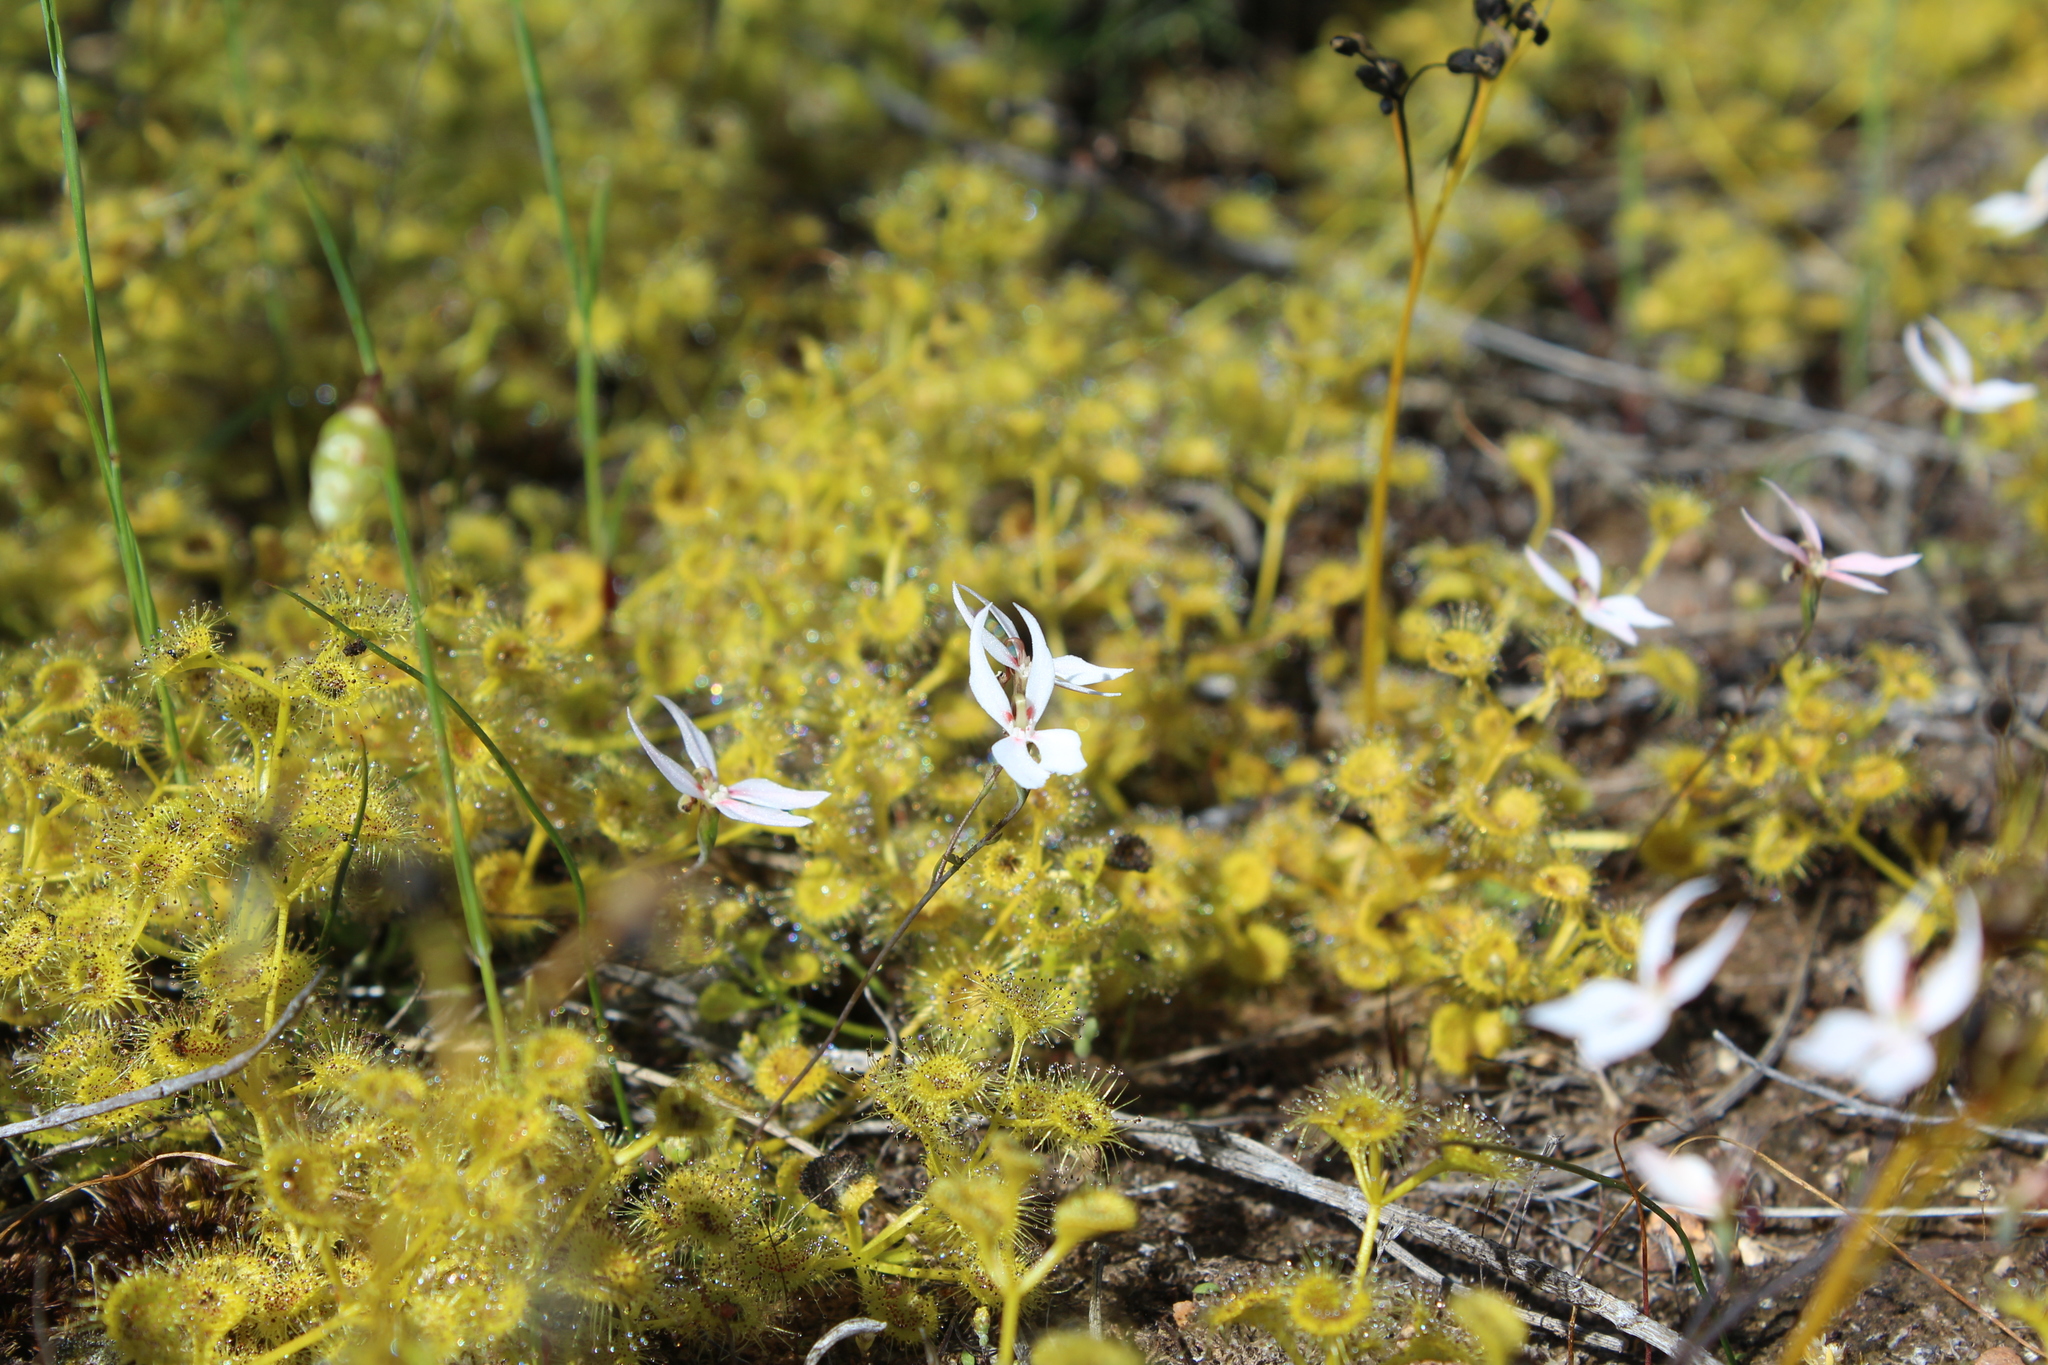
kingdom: Plantae
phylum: Tracheophyta
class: Magnoliopsida
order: Caryophyllales
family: Droseraceae
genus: Drosera
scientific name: Drosera rupicola
